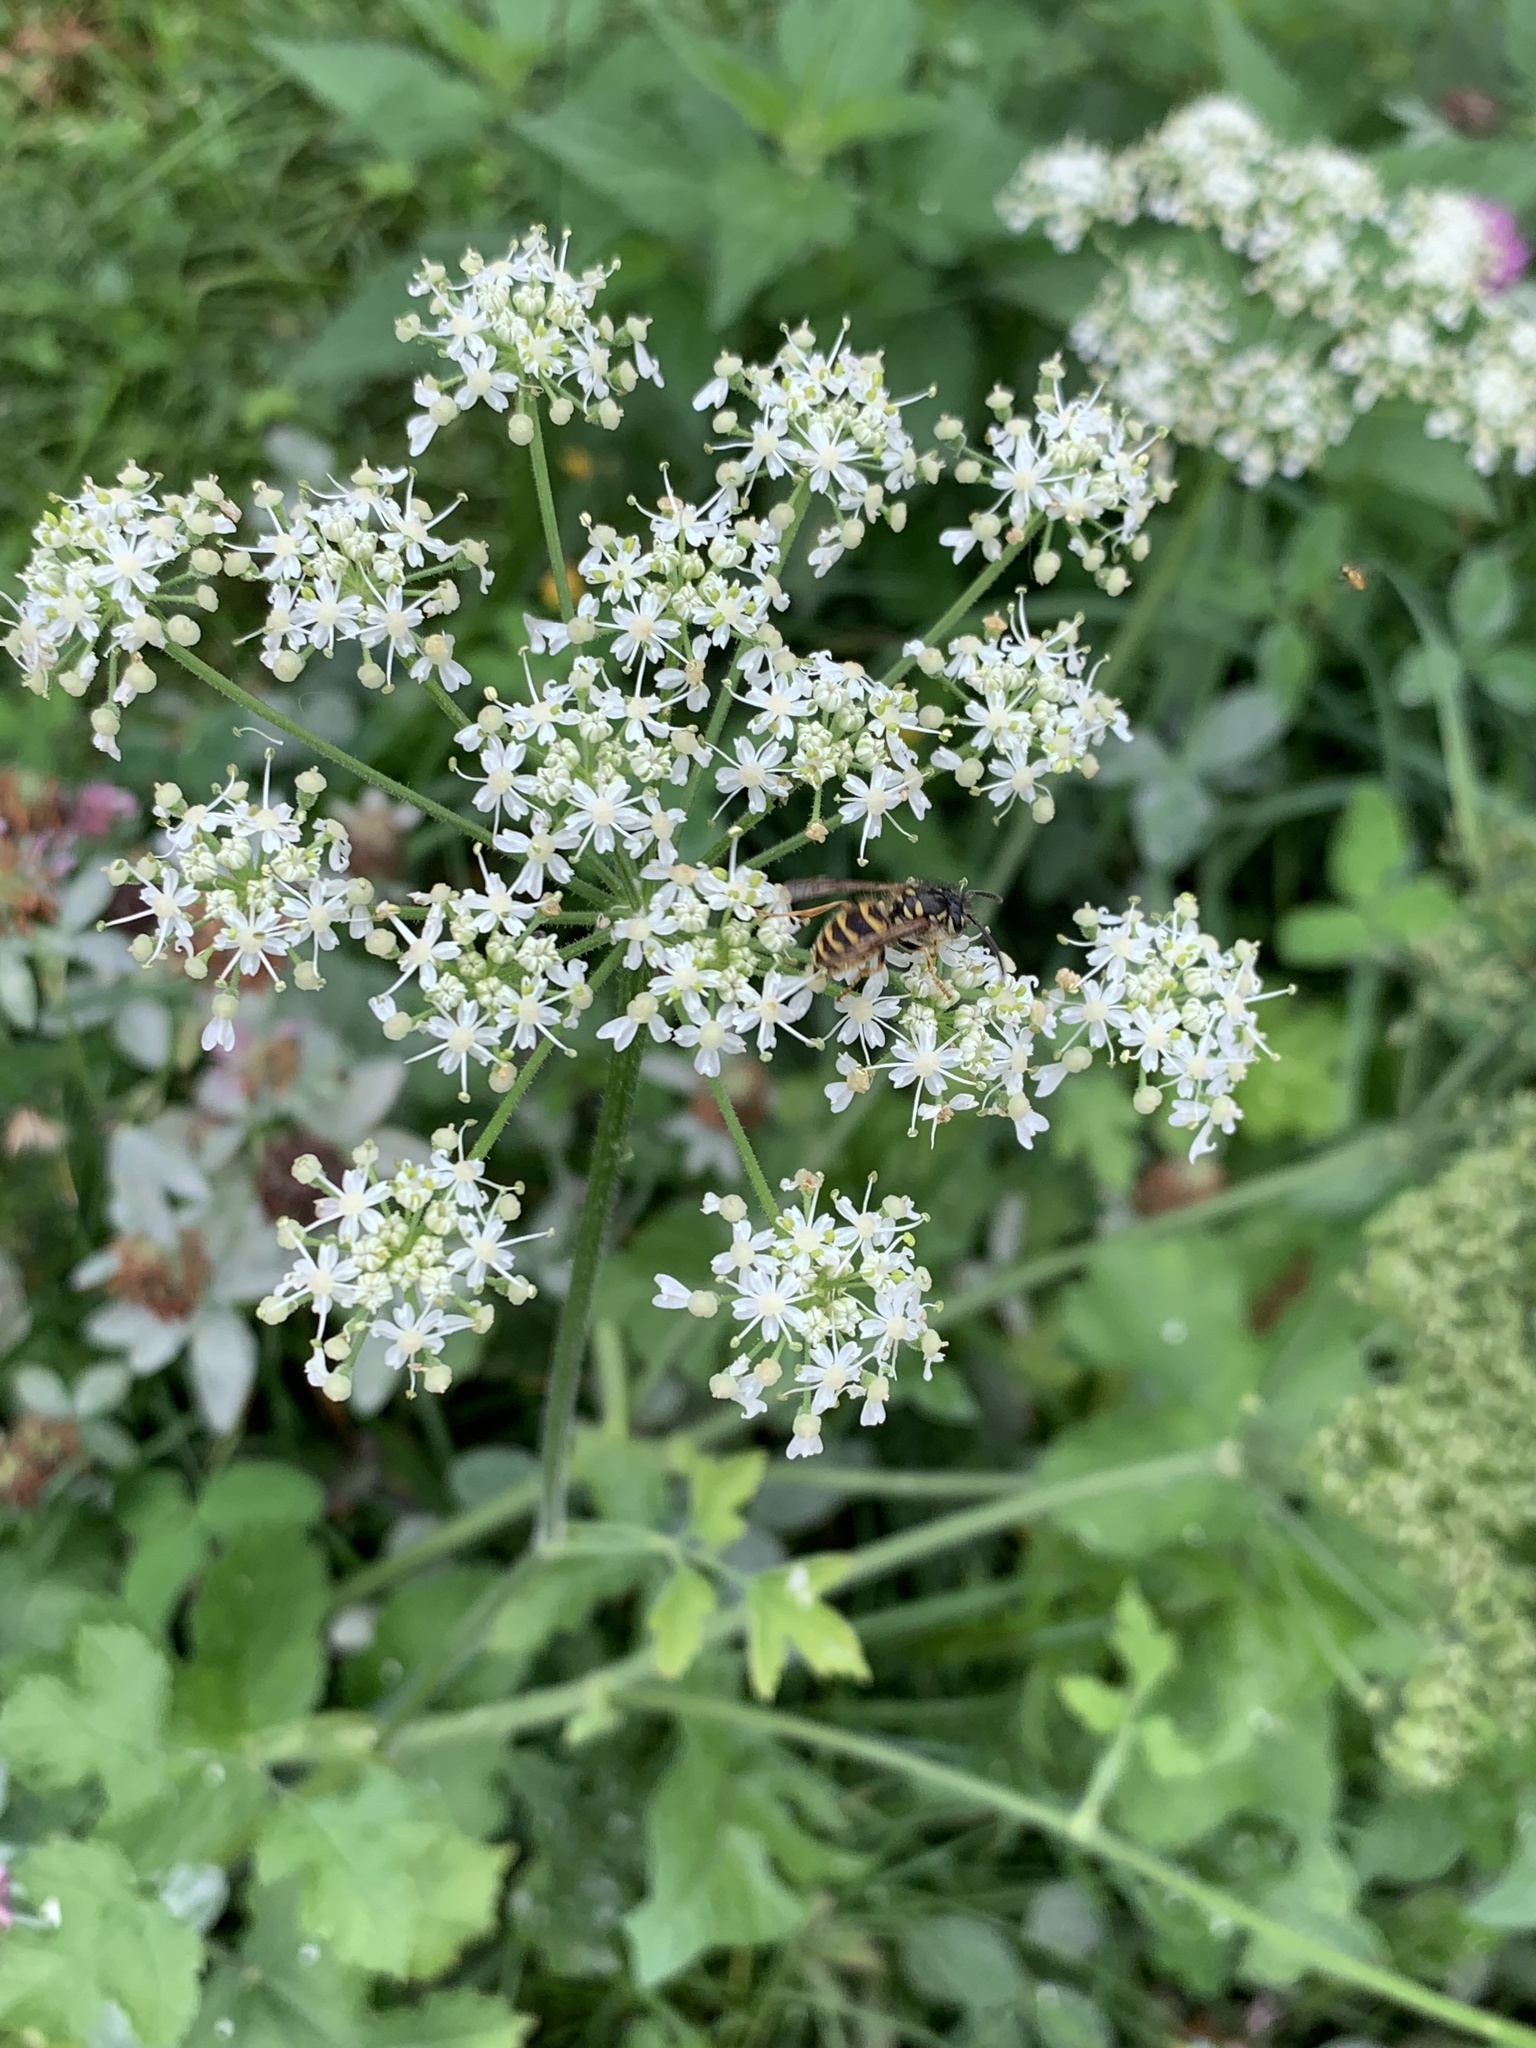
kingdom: Plantae
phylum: Tracheophyta
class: Magnoliopsida
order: Apiales
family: Apiaceae
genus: Heracleum
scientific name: Heracleum sphondylium
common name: Hogweed
